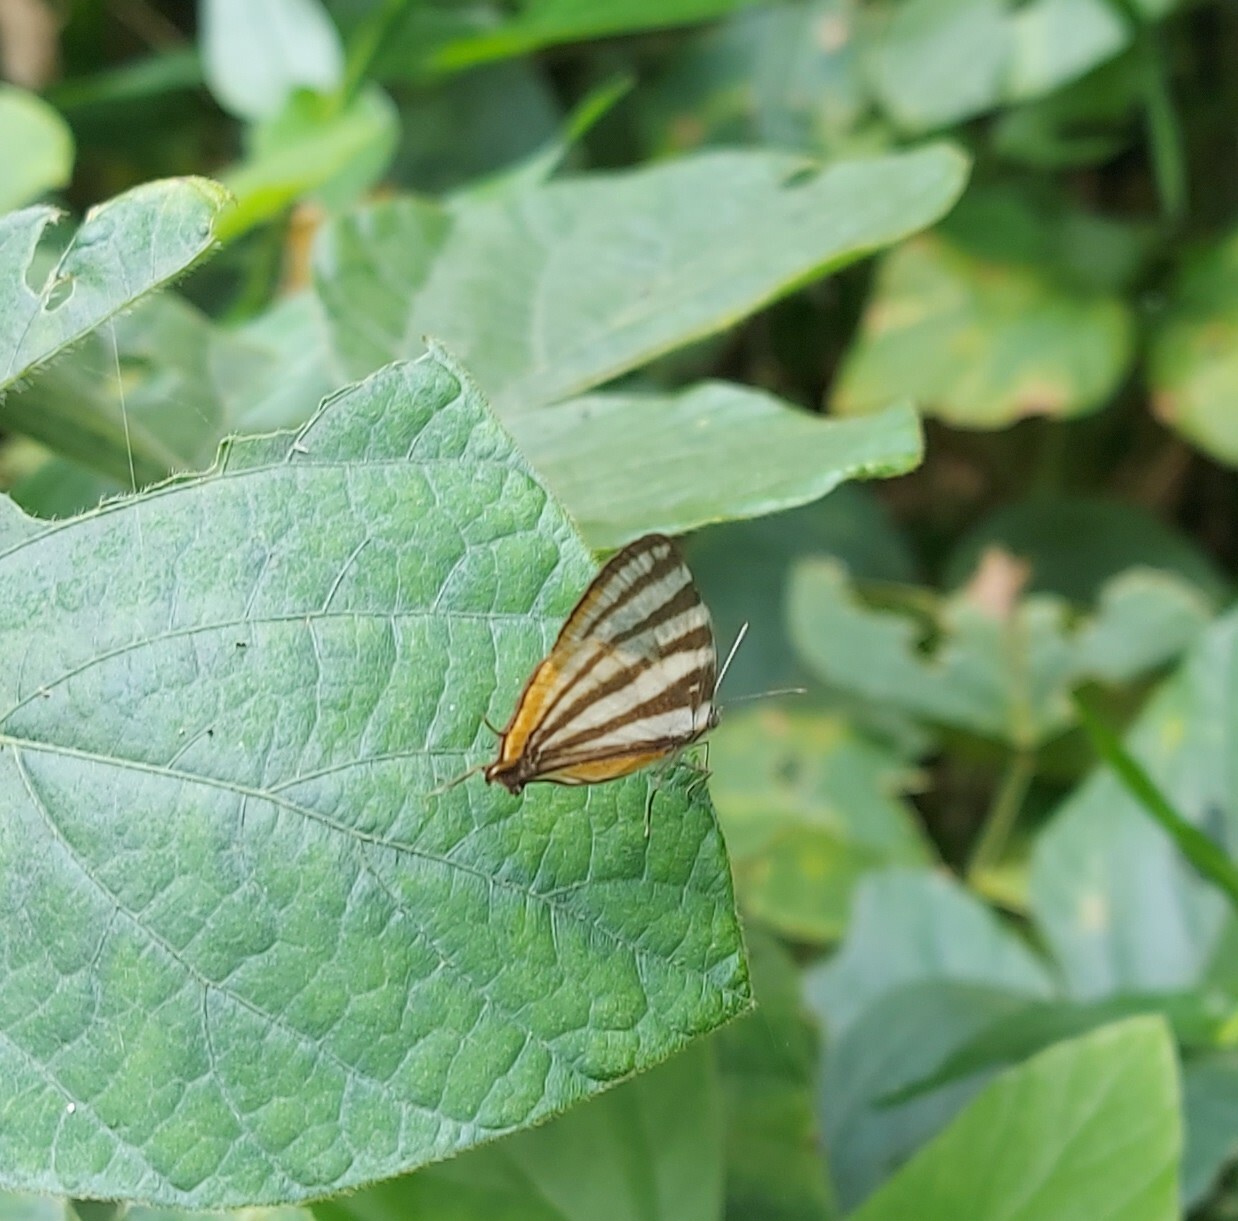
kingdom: Animalia
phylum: Arthropoda
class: Insecta
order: Lepidoptera
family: Lycaenidae
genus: Arawacus
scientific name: Arawacus togarna
